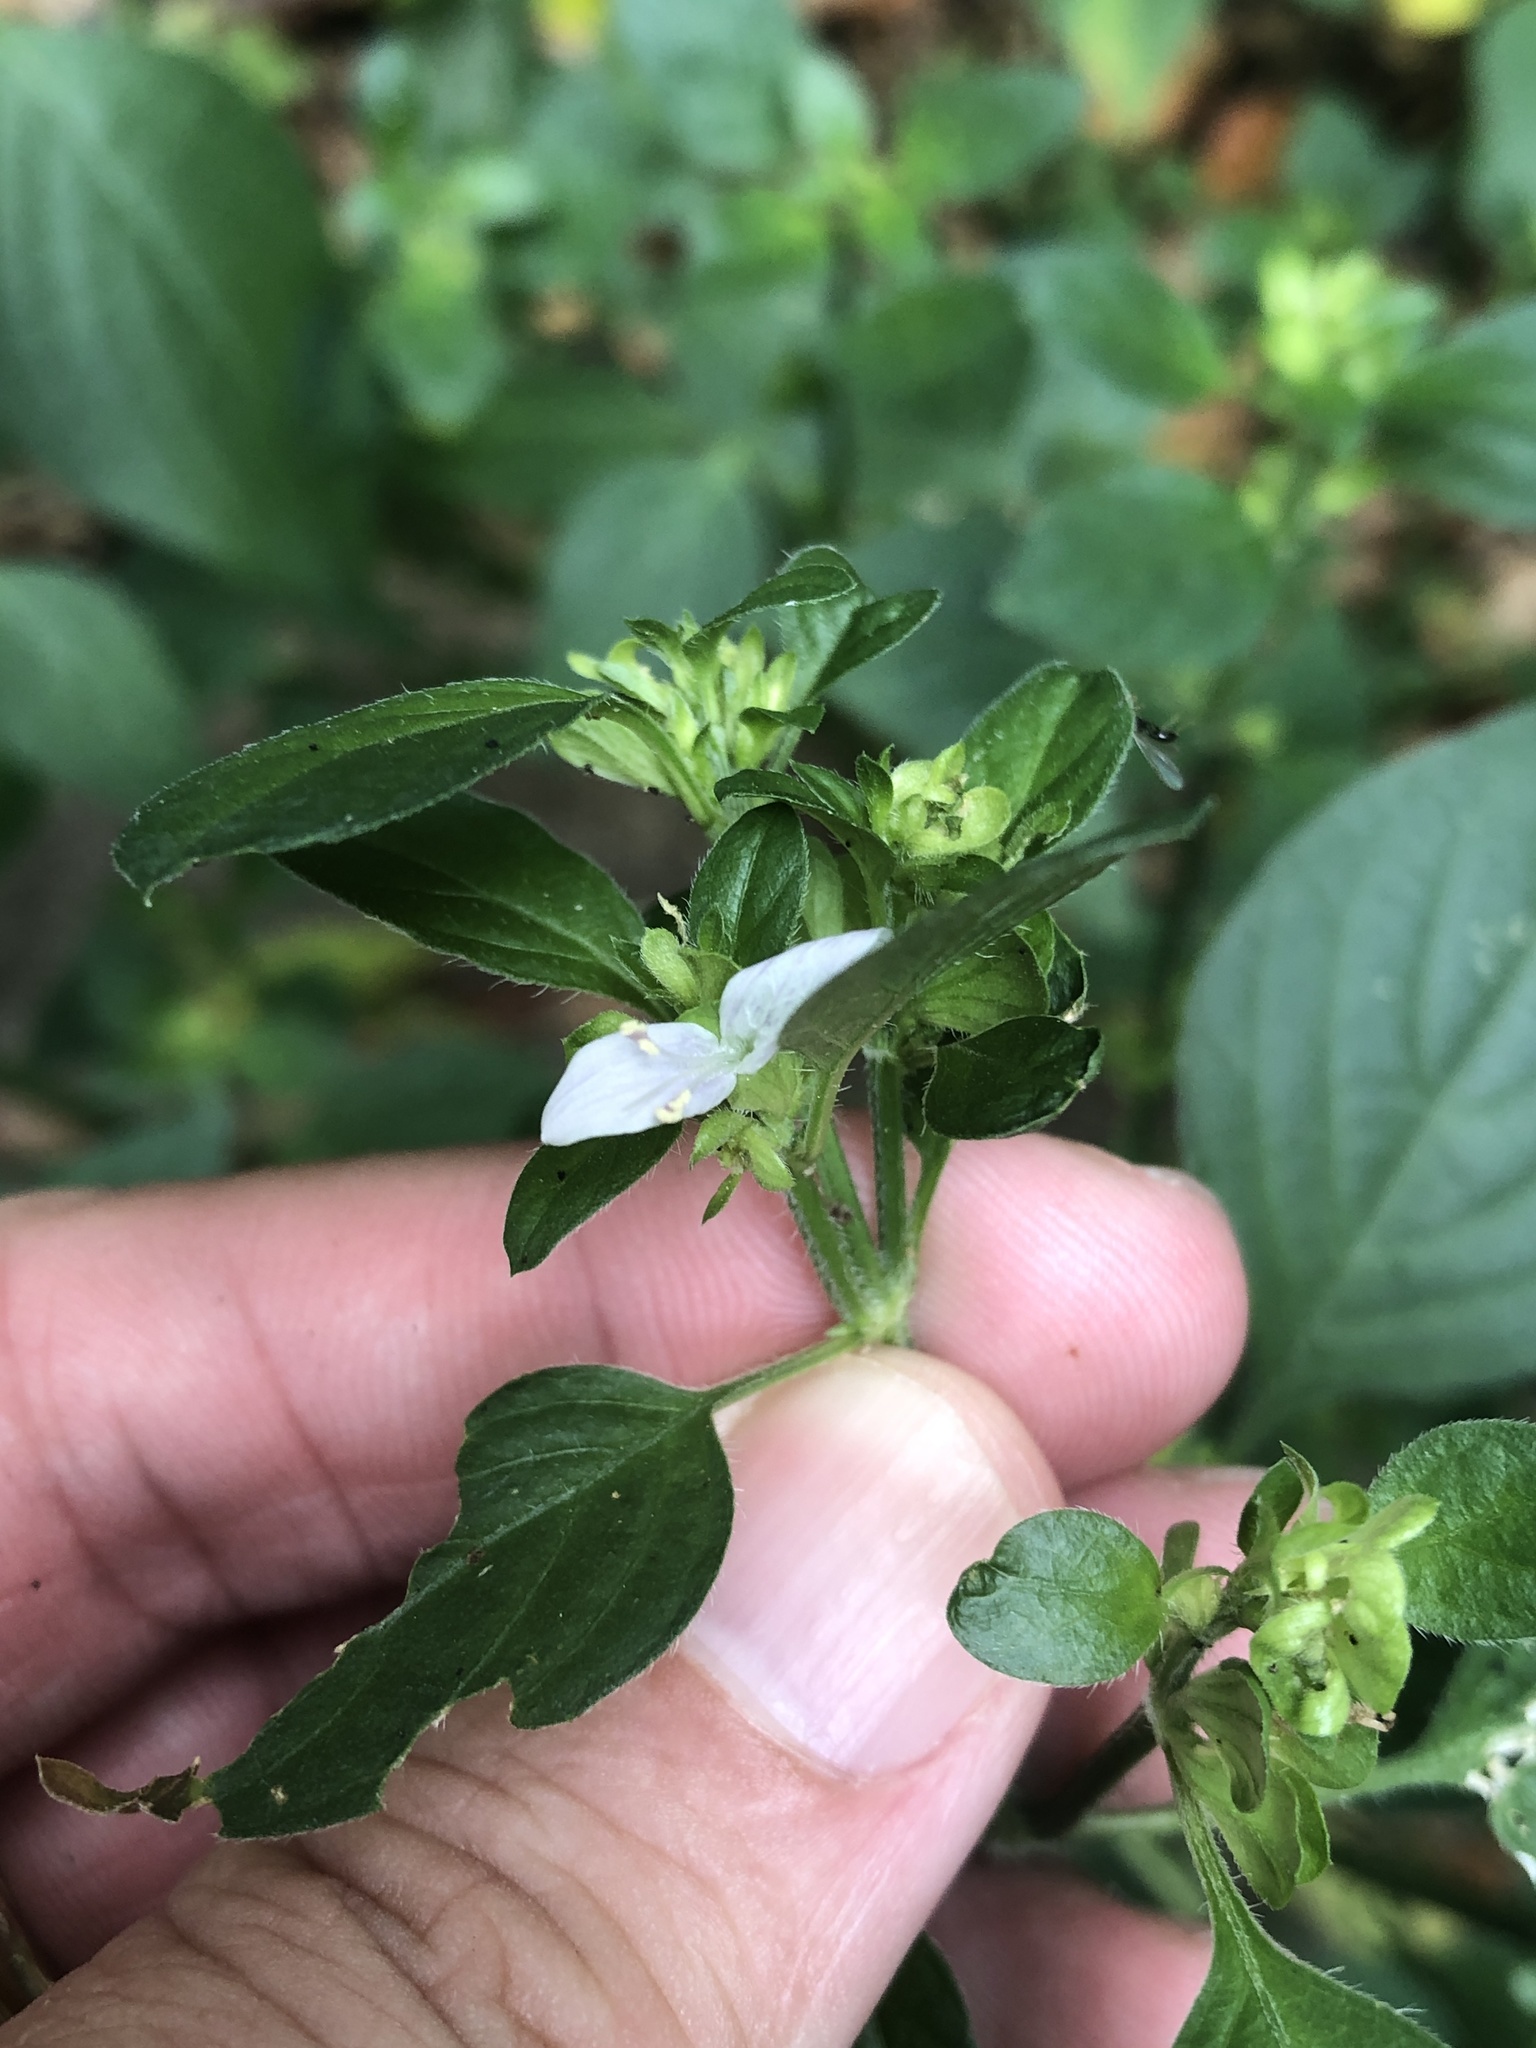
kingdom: Plantae
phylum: Tracheophyta
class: Magnoliopsida
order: Lamiales
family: Acanthaceae
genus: Dicliptera
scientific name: Dicliptera brachiata
